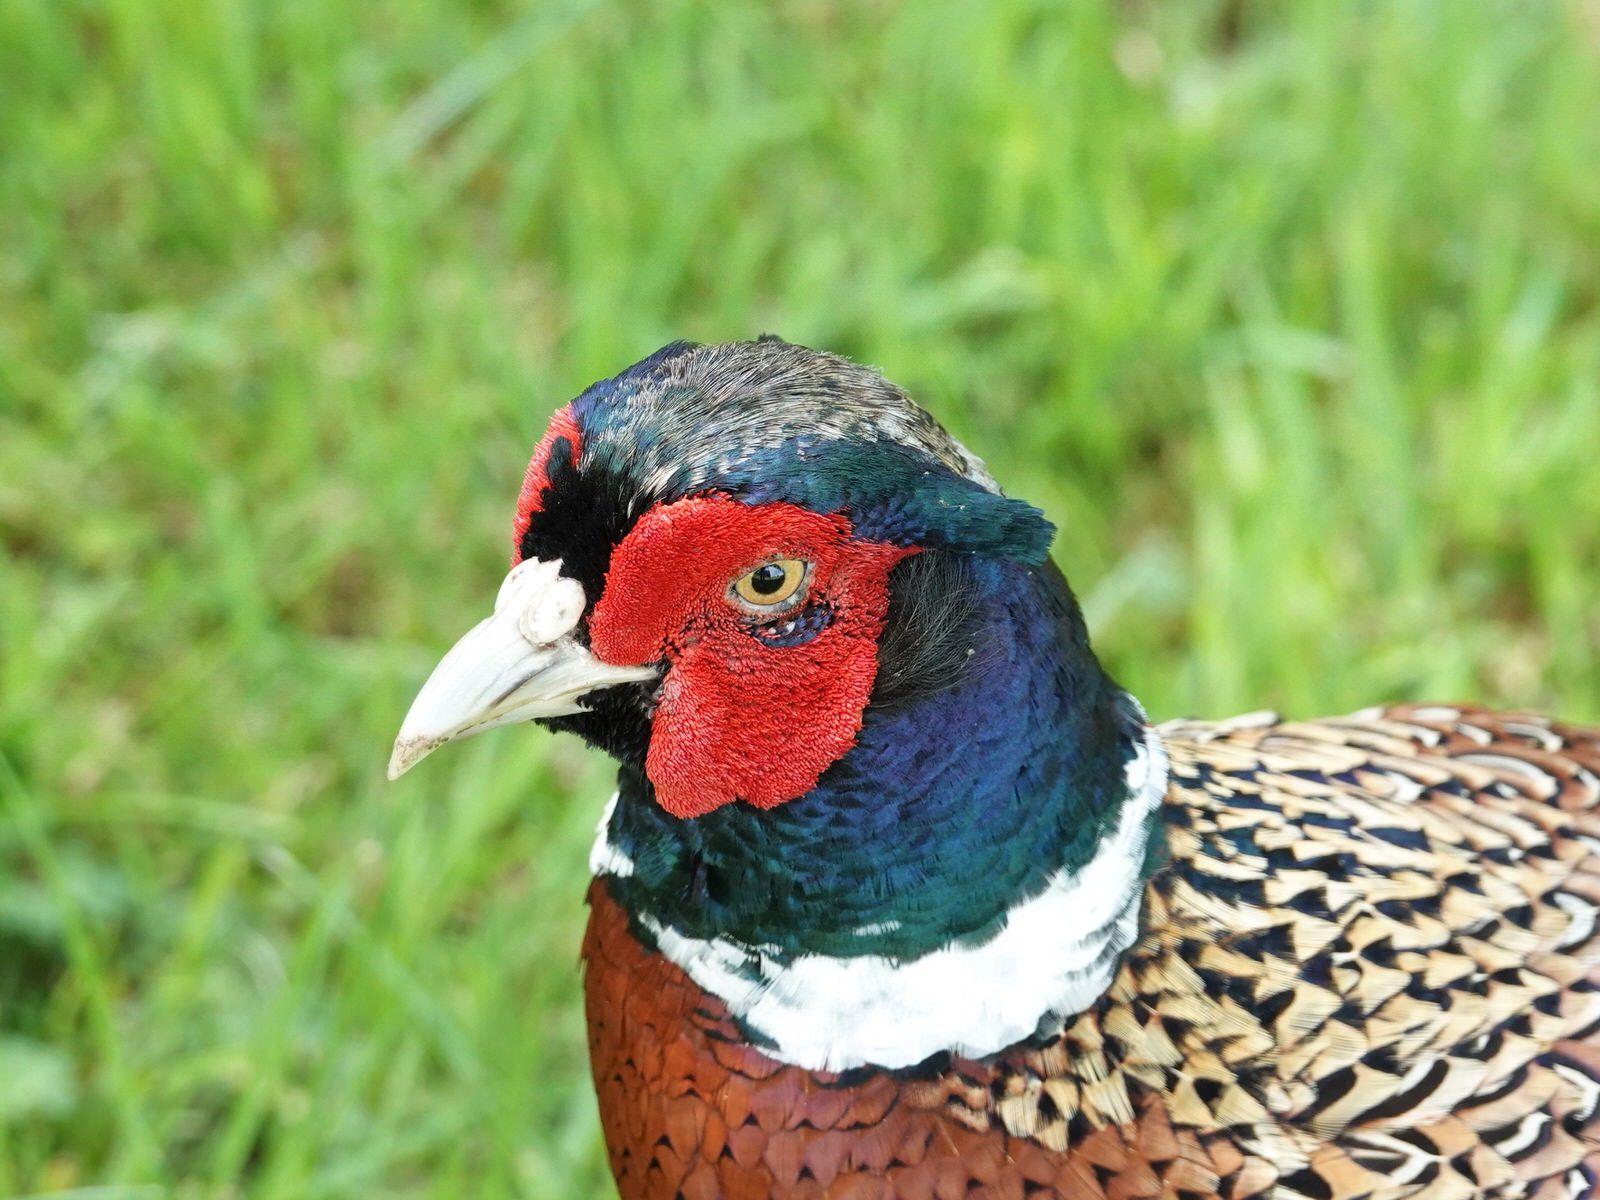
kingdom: Animalia
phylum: Chordata
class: Aves
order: Galliformes
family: Phasianidae
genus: Phasianus
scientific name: Phasianus colchicus
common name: Common pheasant
